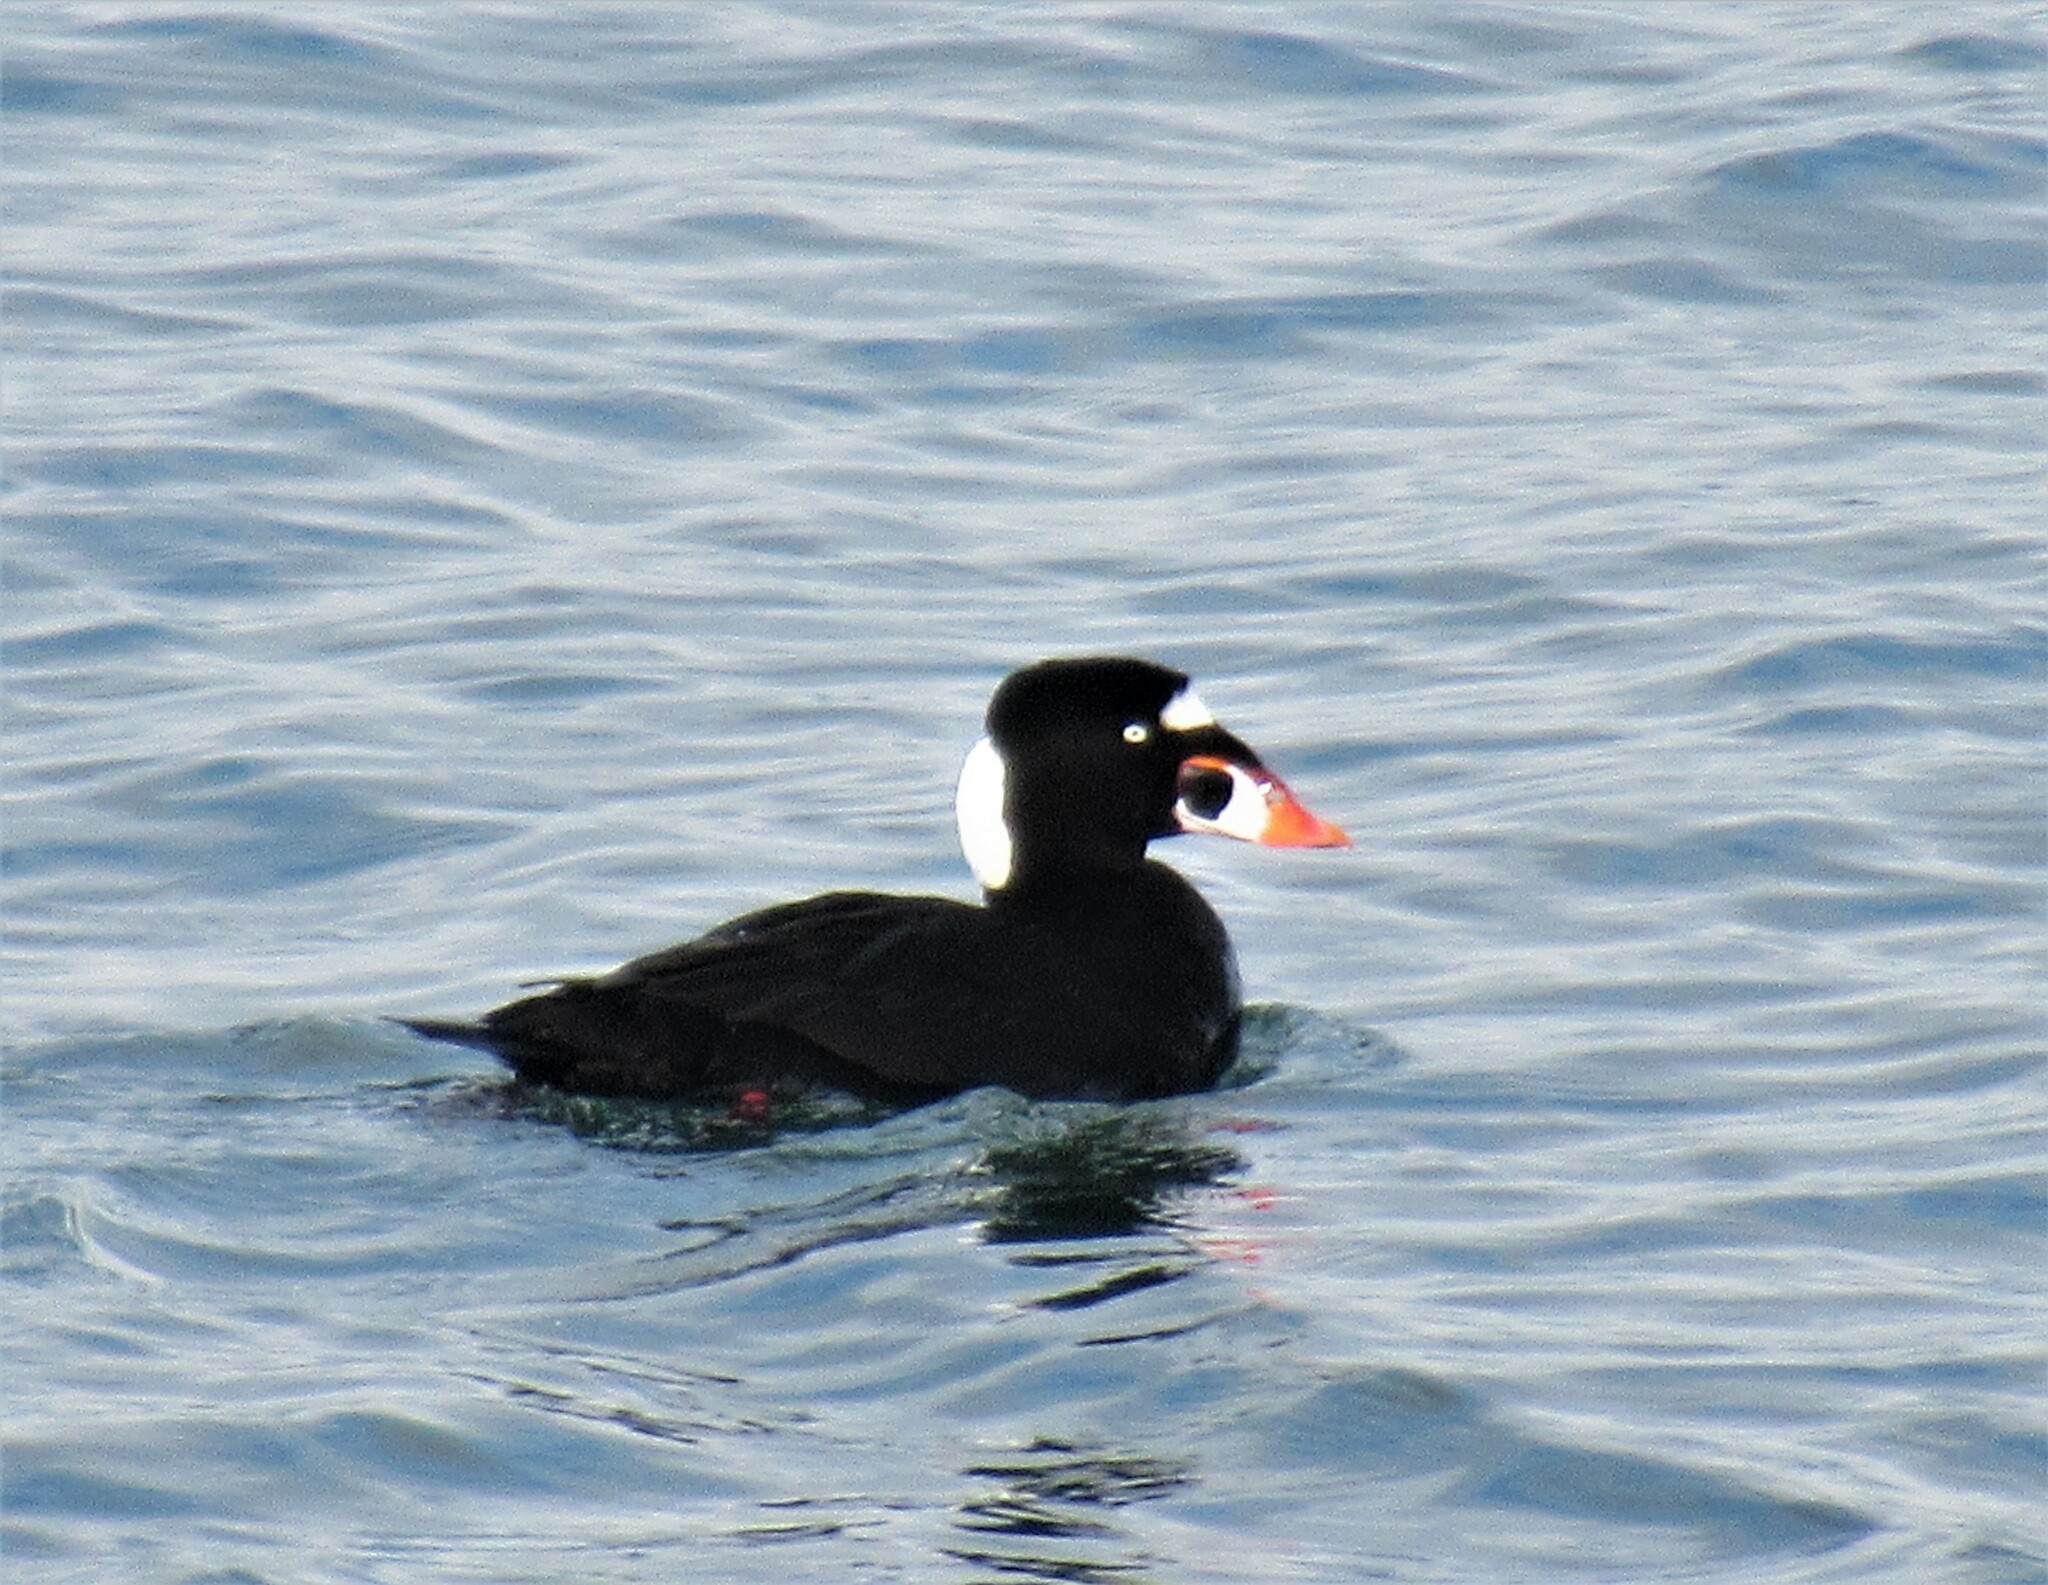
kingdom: Animalia
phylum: Chordata
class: Aves
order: Anseriformes
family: Anatidae
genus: Melanitta
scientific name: Melanitta perspicillata
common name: Surf scoter
